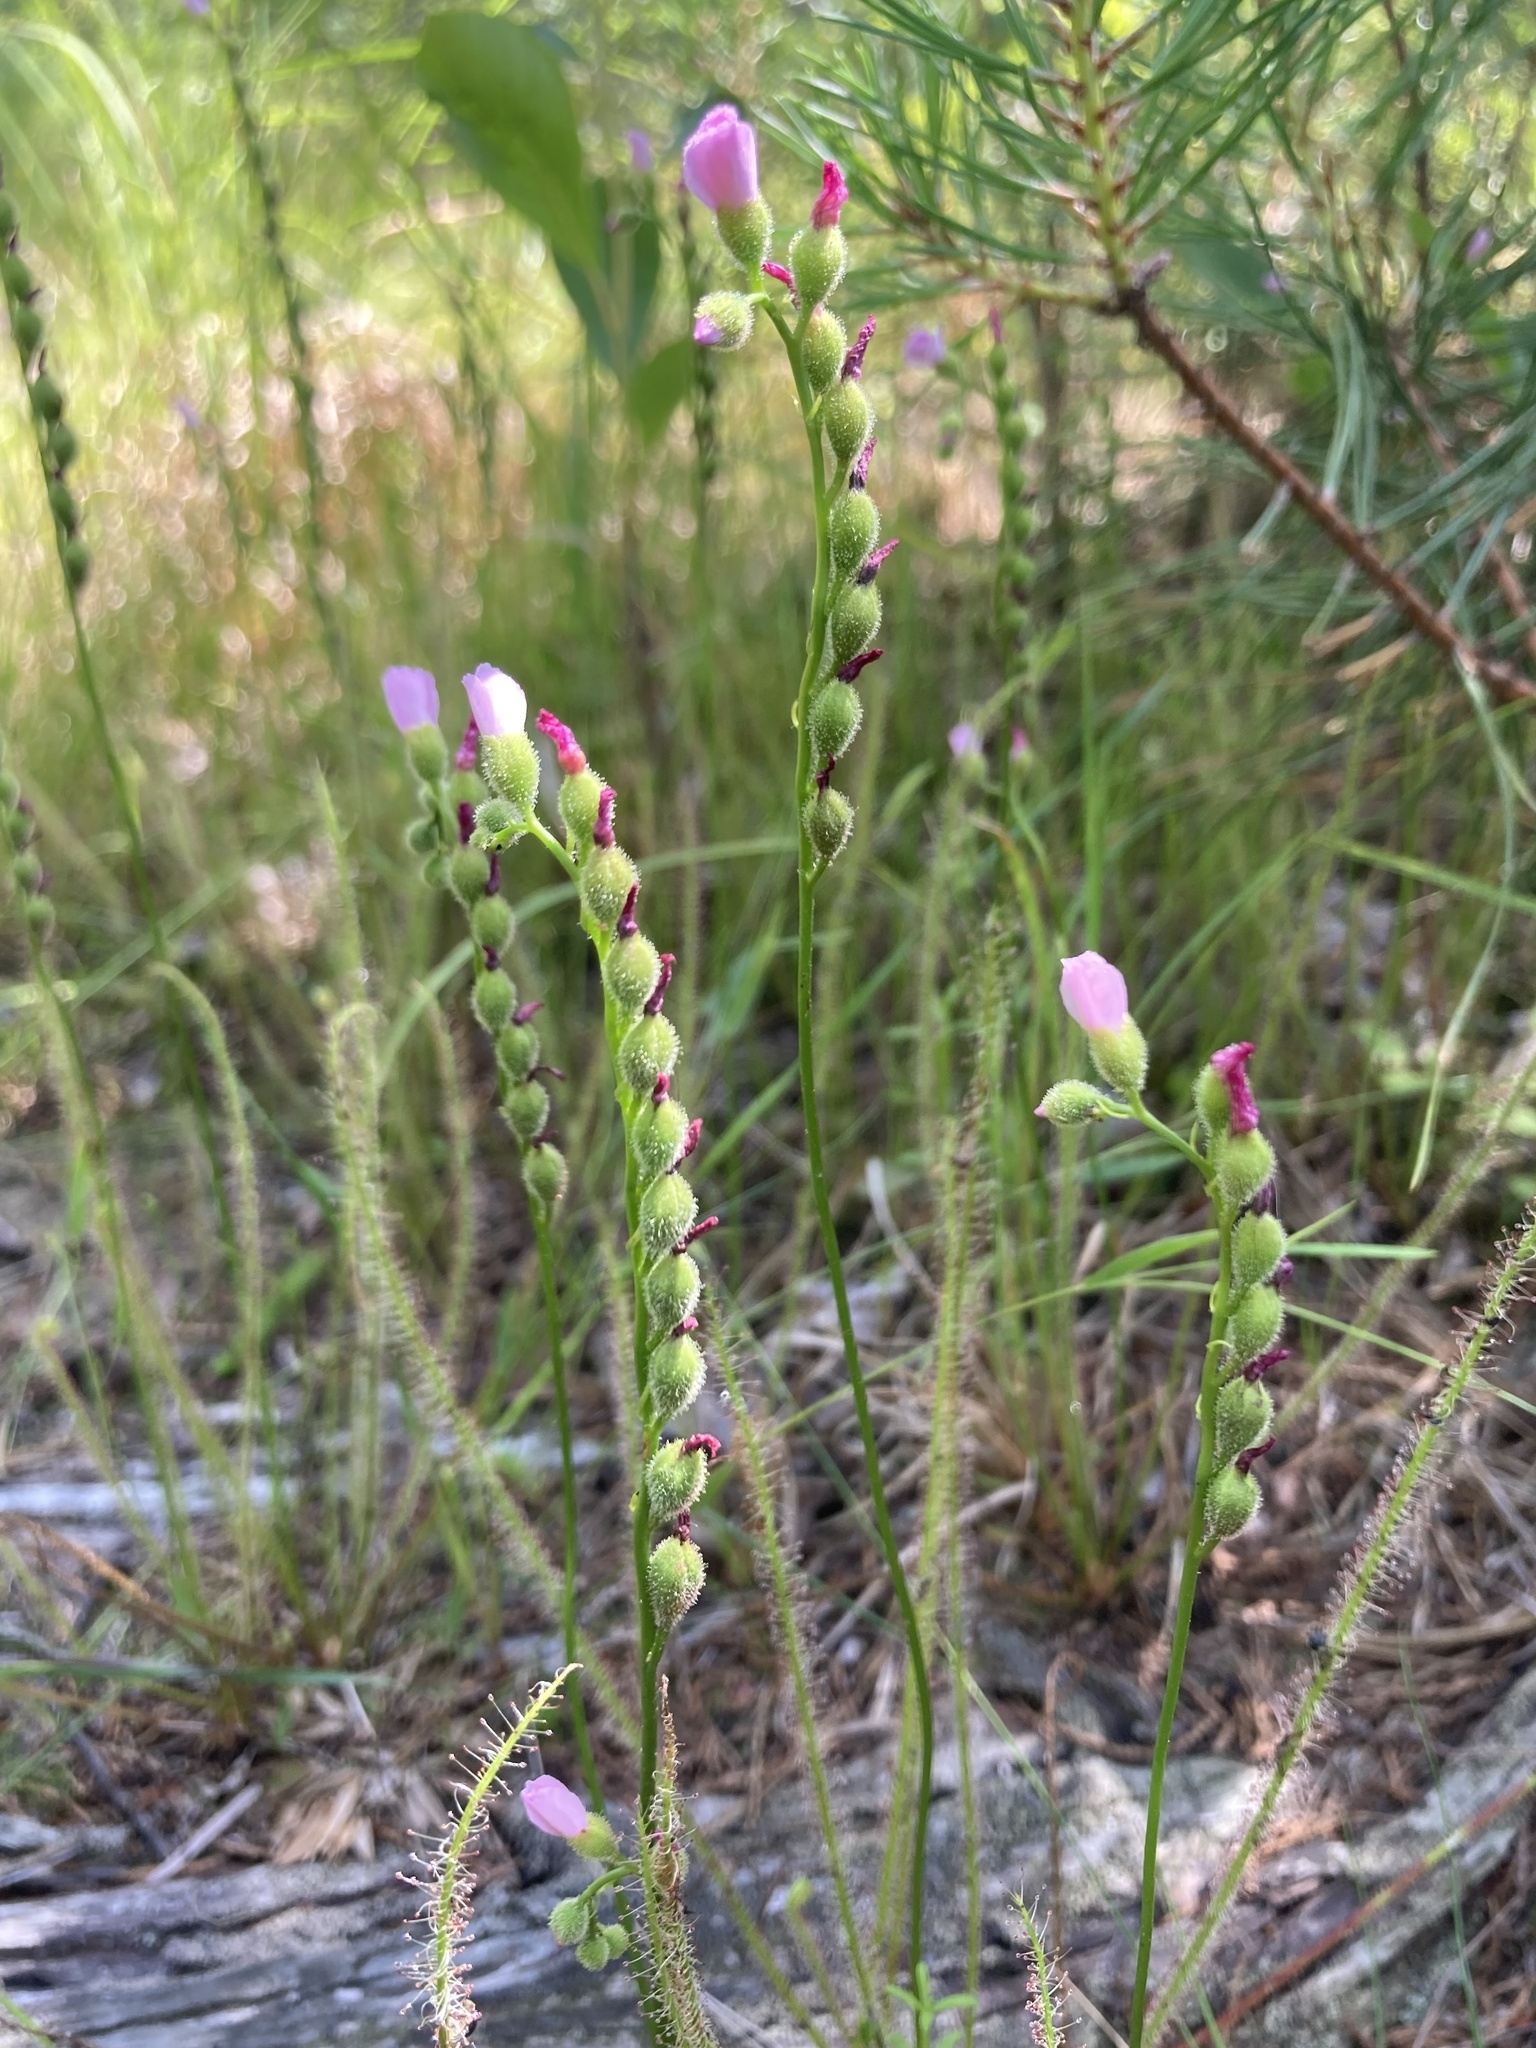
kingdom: Plantae
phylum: Tracheophyta
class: Magnoliopsida
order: Caryophyllales
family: Droseraceae
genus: Drosera
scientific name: Drosera filiformis
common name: Dew-thread
